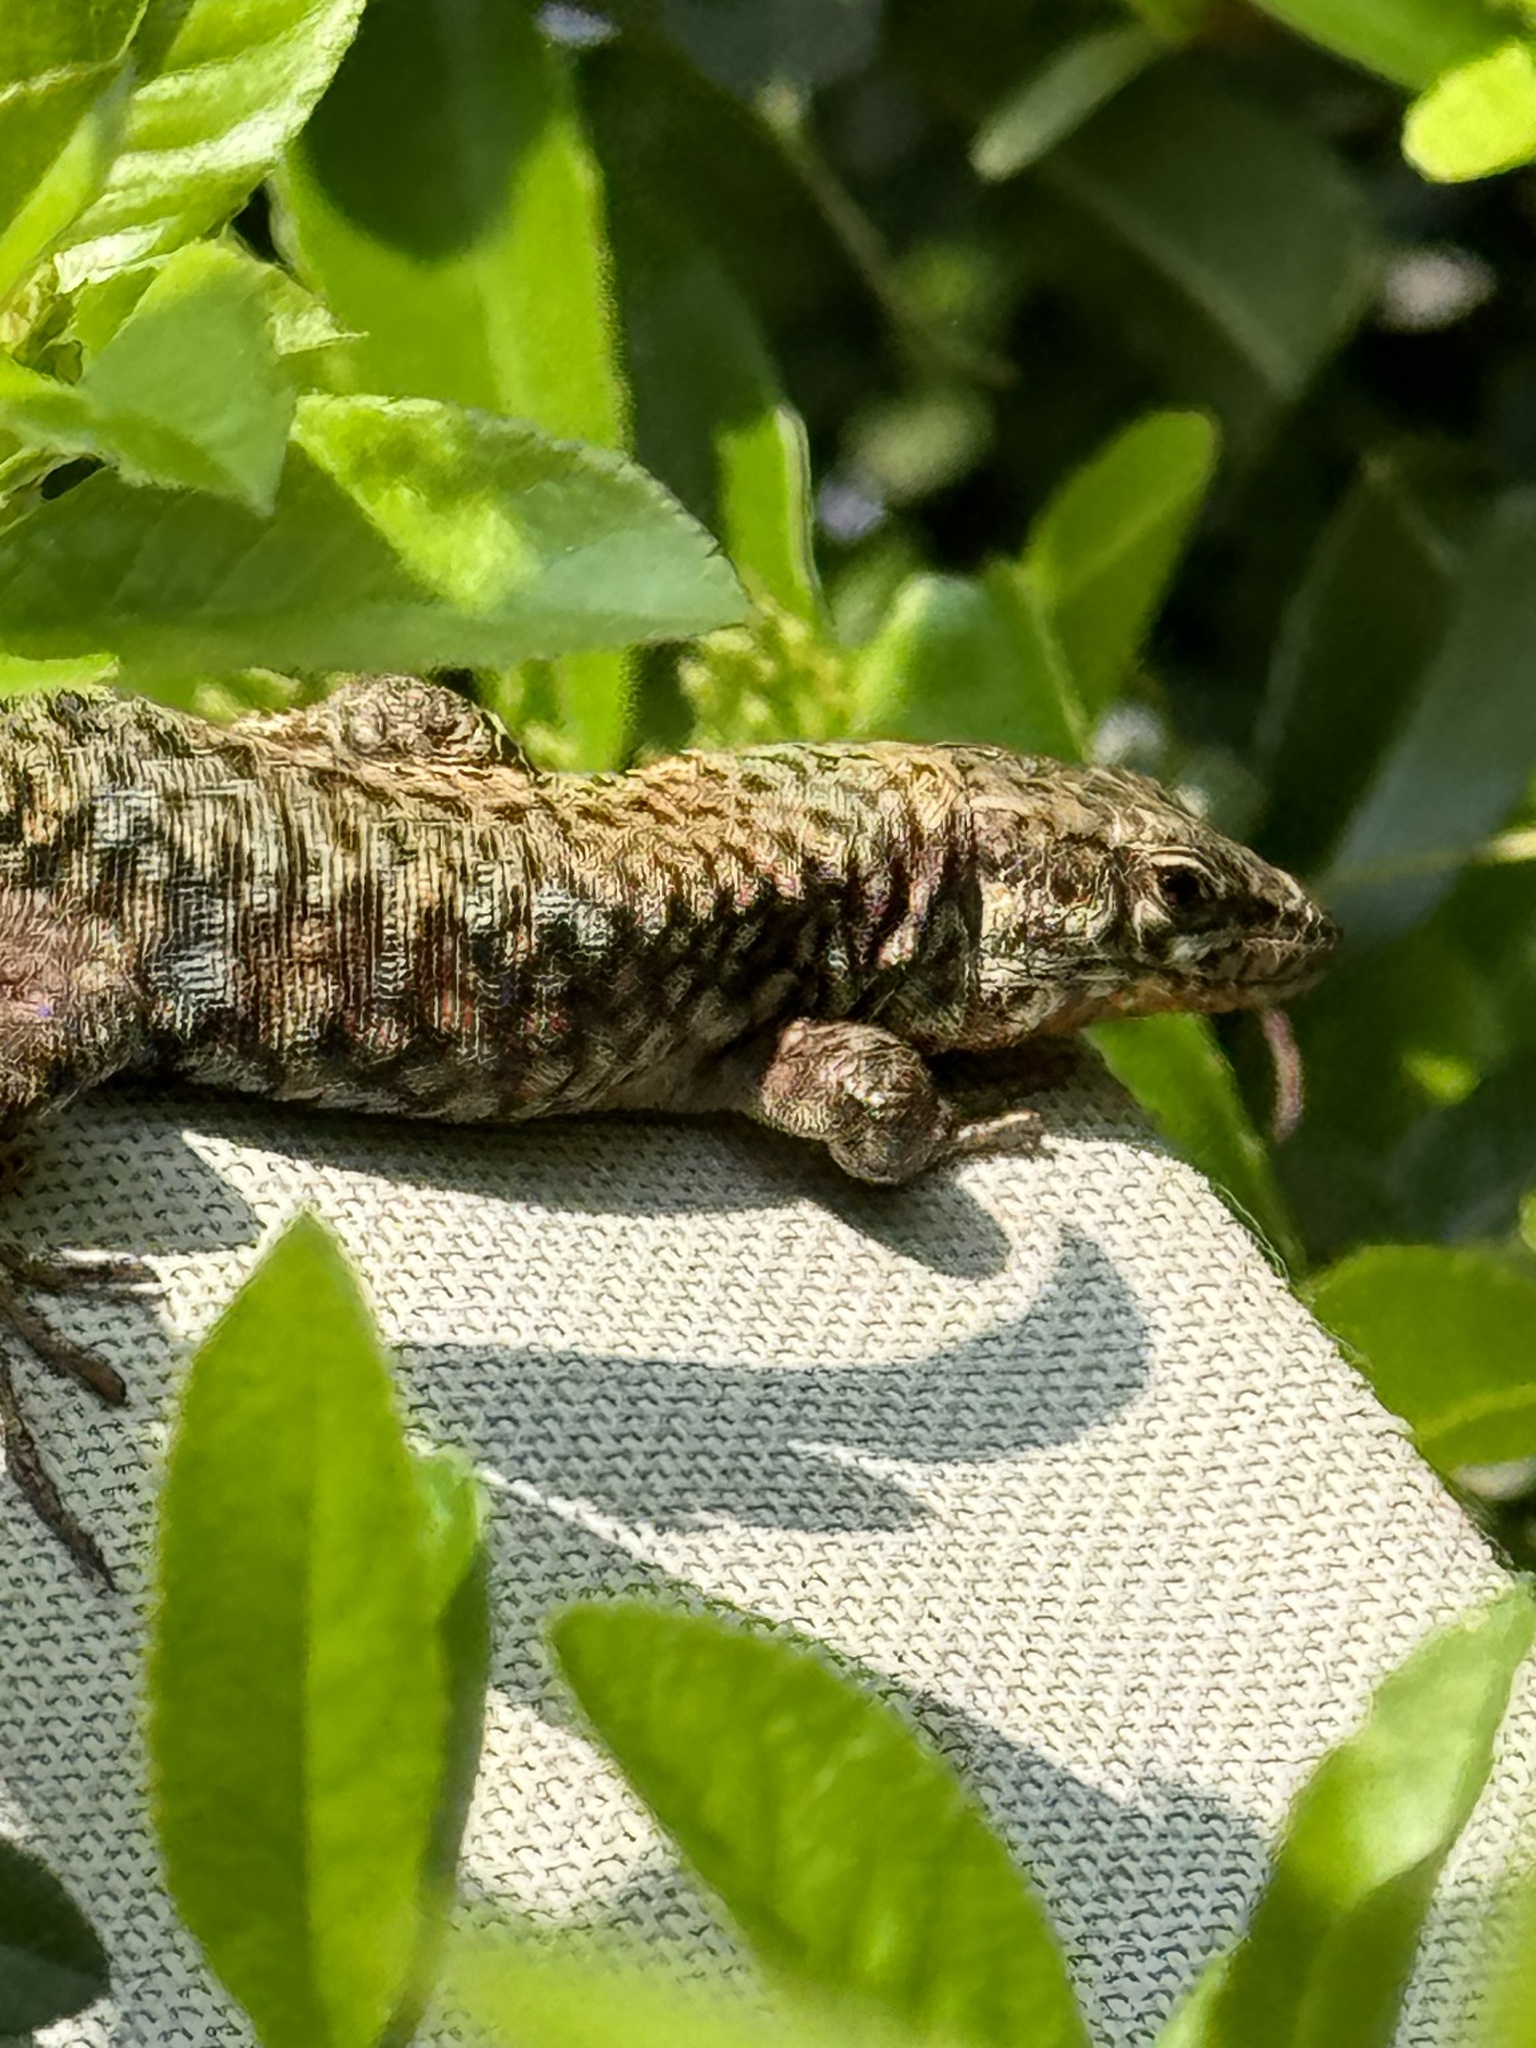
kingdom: Animalia
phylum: Chordata
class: Squamata
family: Lacertidae
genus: Podarcis
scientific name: Podarcis muralis
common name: Common wall lizard
